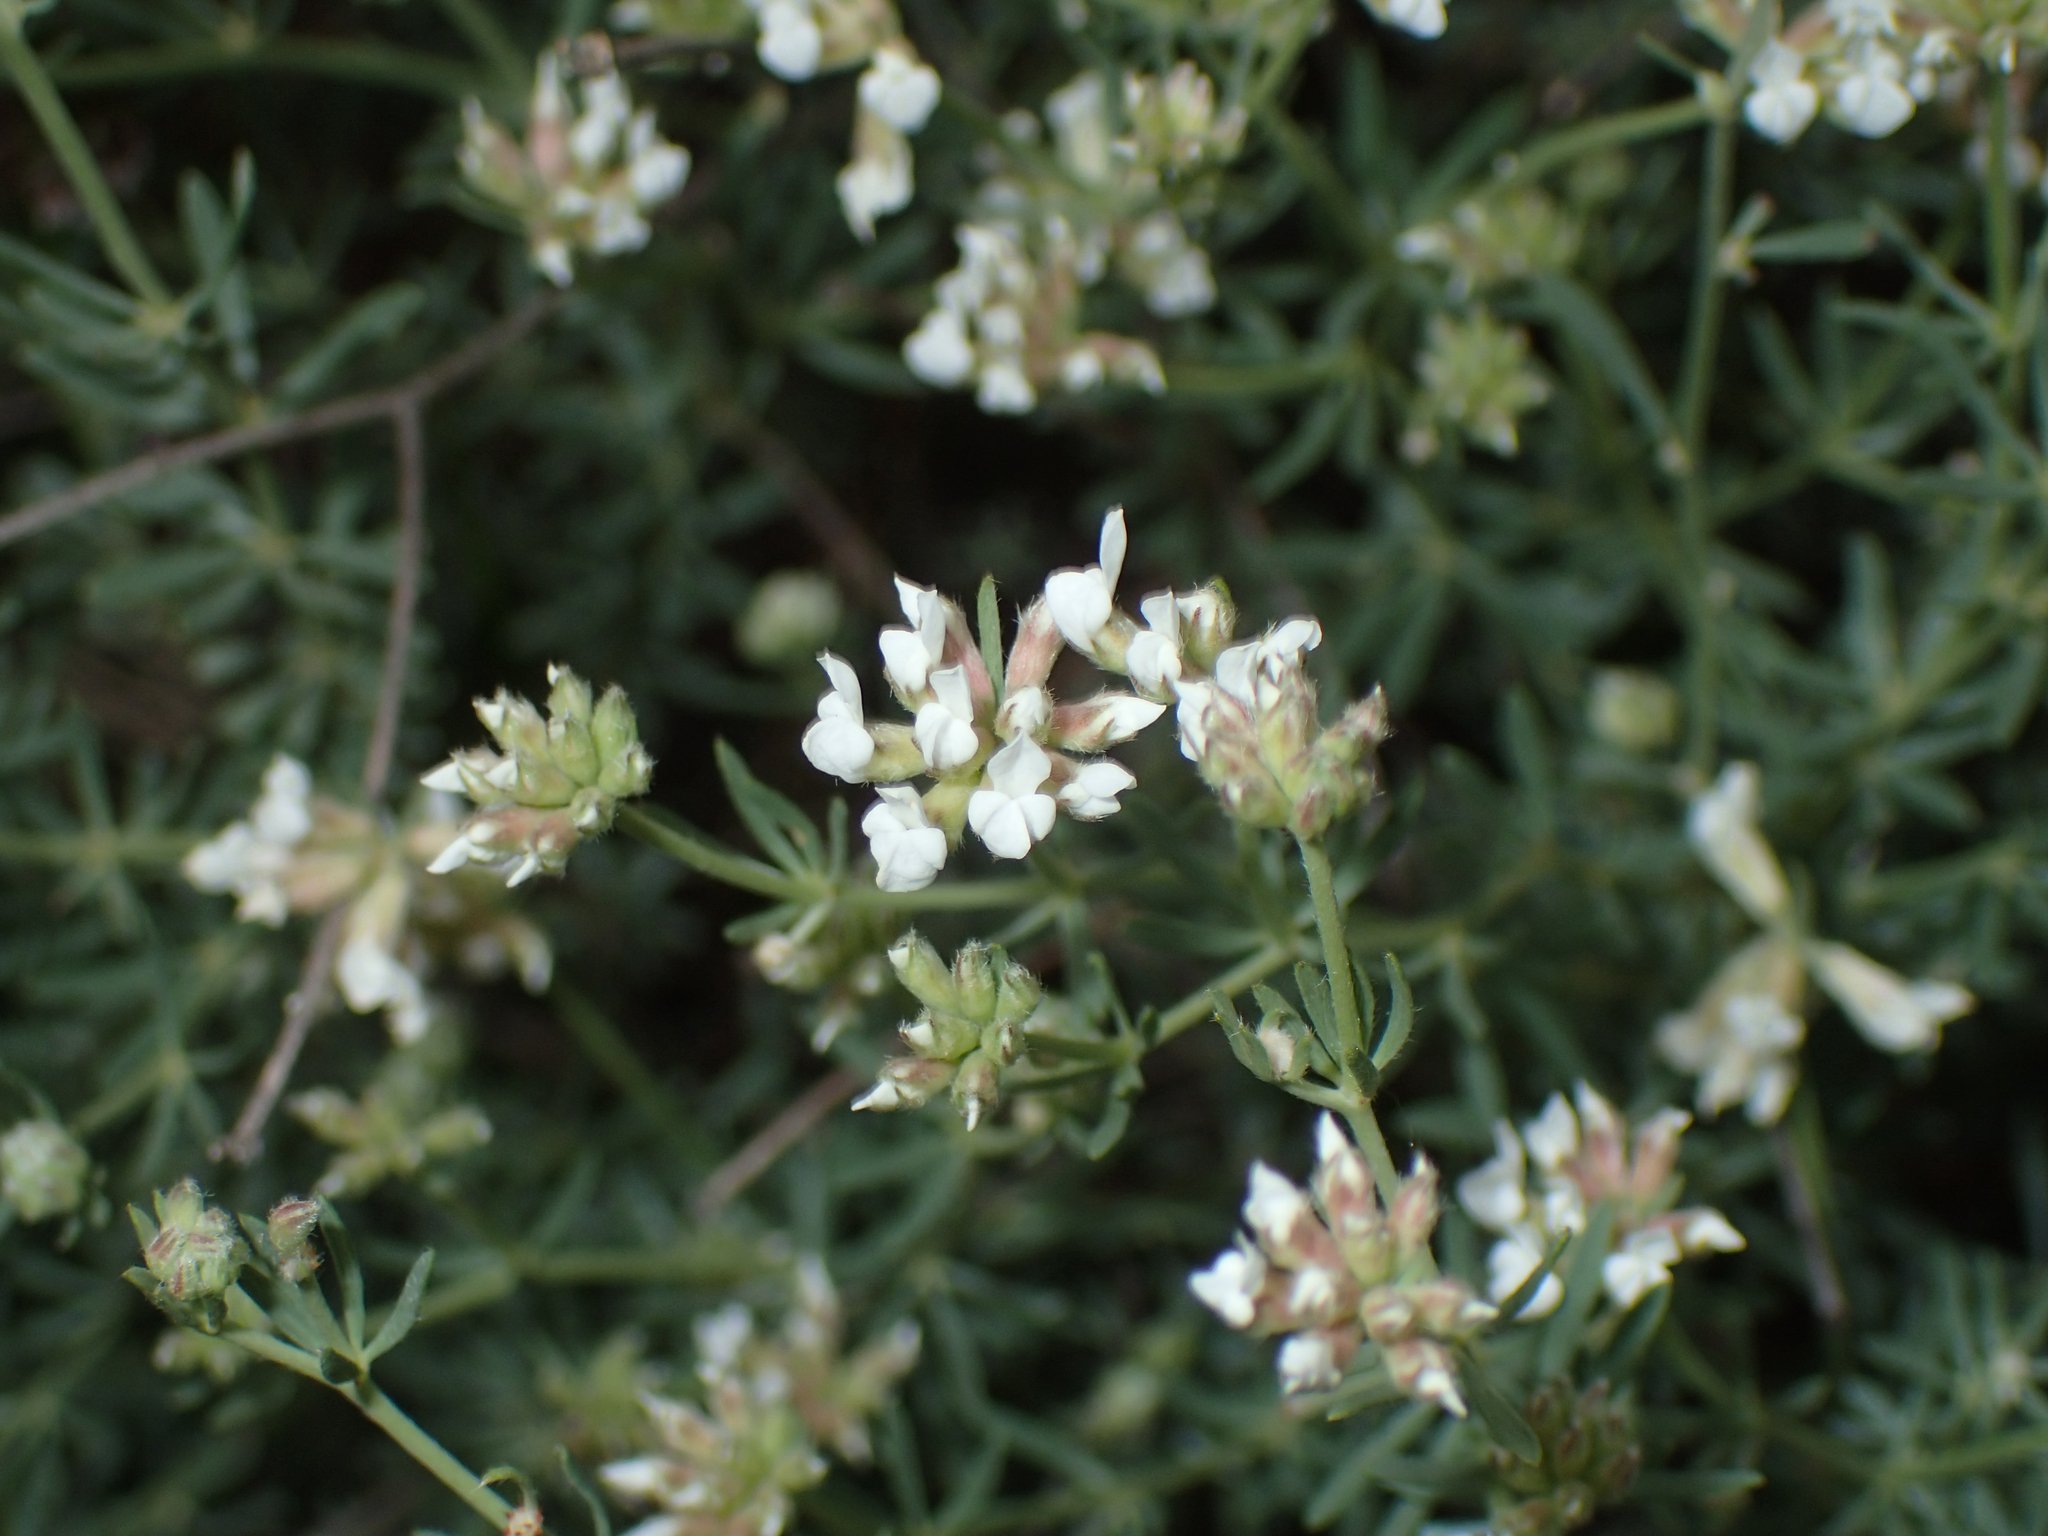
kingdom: Plantae
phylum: Tracheophyta
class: Magnoliopsida
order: Fabales
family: Fabaceae
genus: Lotus
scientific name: Lotus dorycnium
